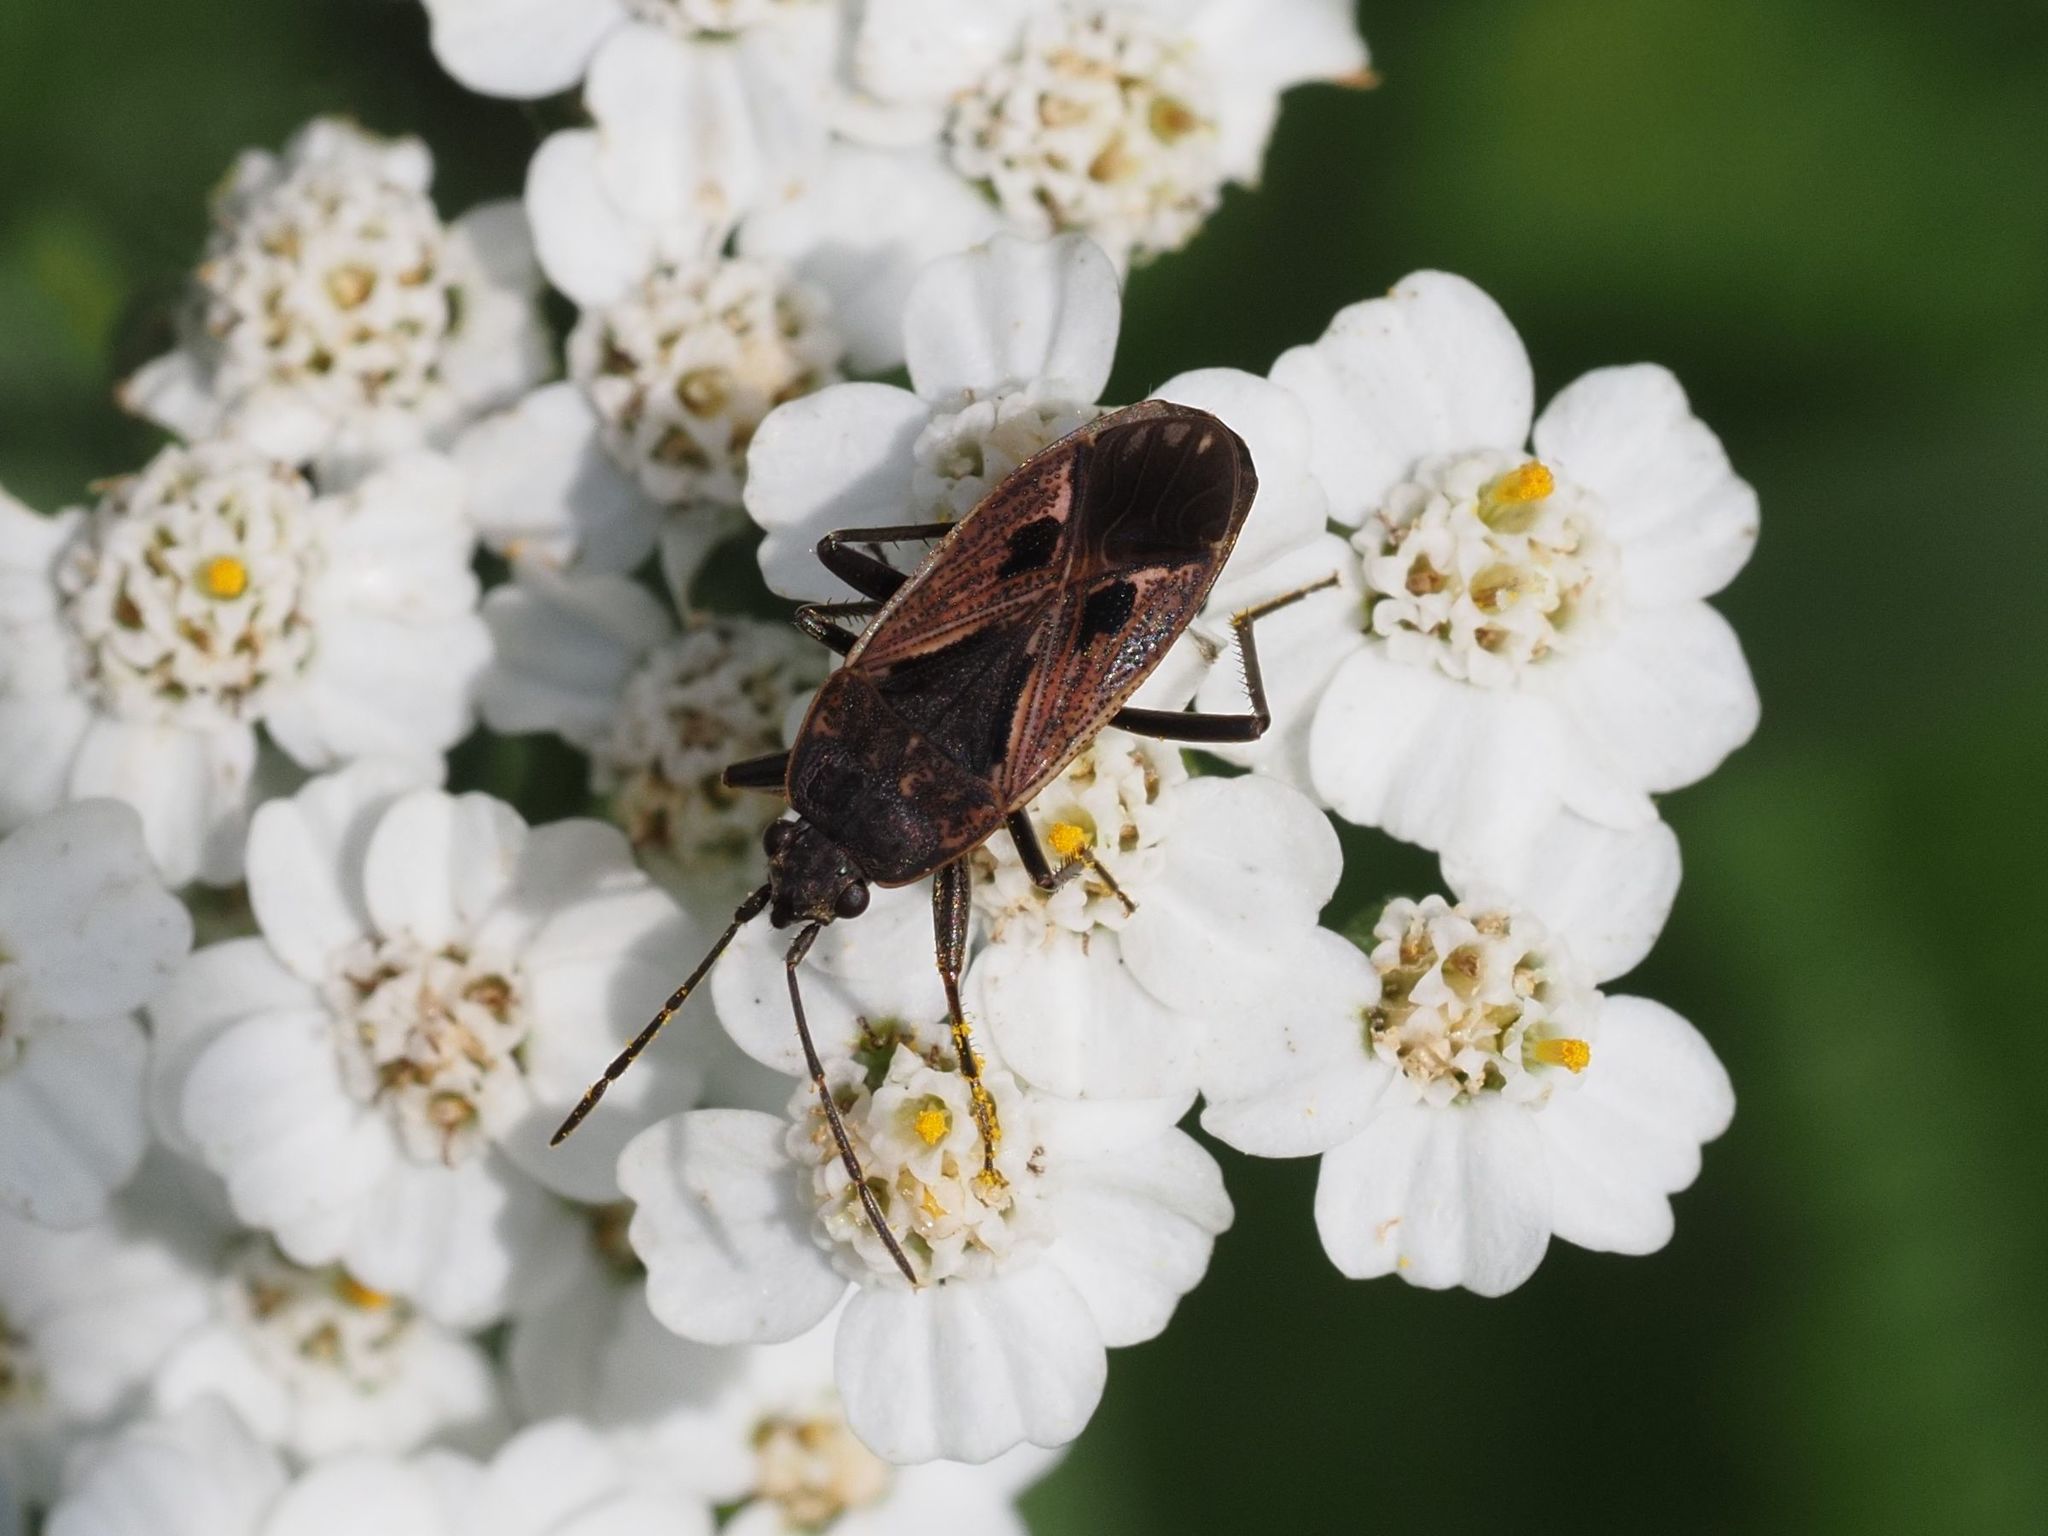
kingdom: Animalia
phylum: Arthropoda
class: Insecta
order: Hemiptera
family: Rhyparochromidae
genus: Rhyparochromus
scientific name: Rhyparochromus vulgaris
